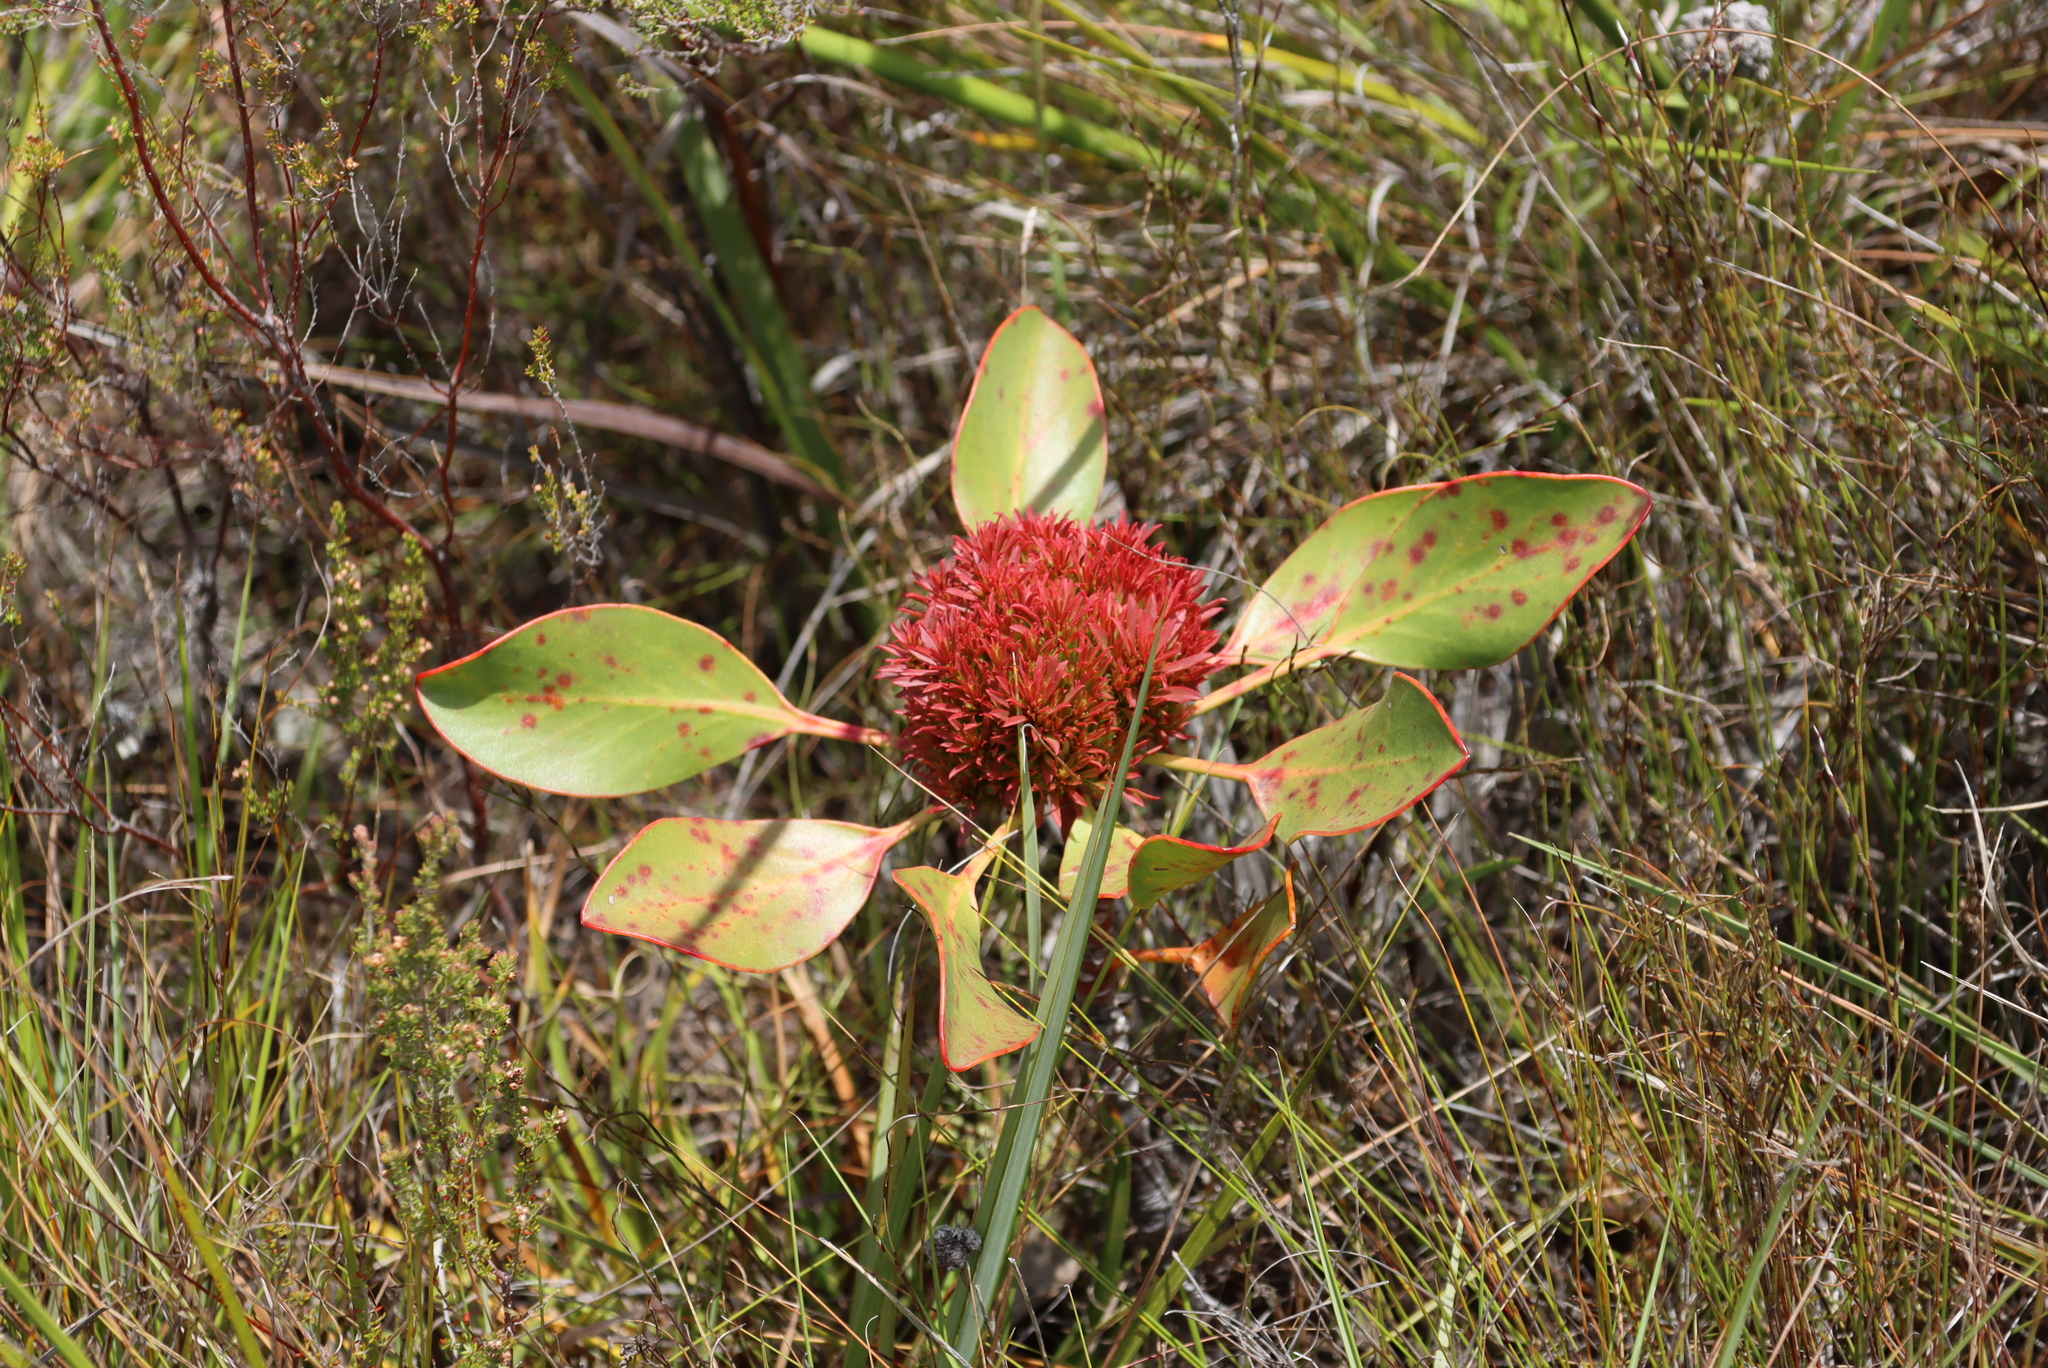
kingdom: Bacteria
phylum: Firmicutes
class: Bacilli
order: Acholeplasmatales
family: Acholeplasmataceae
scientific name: Acholeplasmataceae
